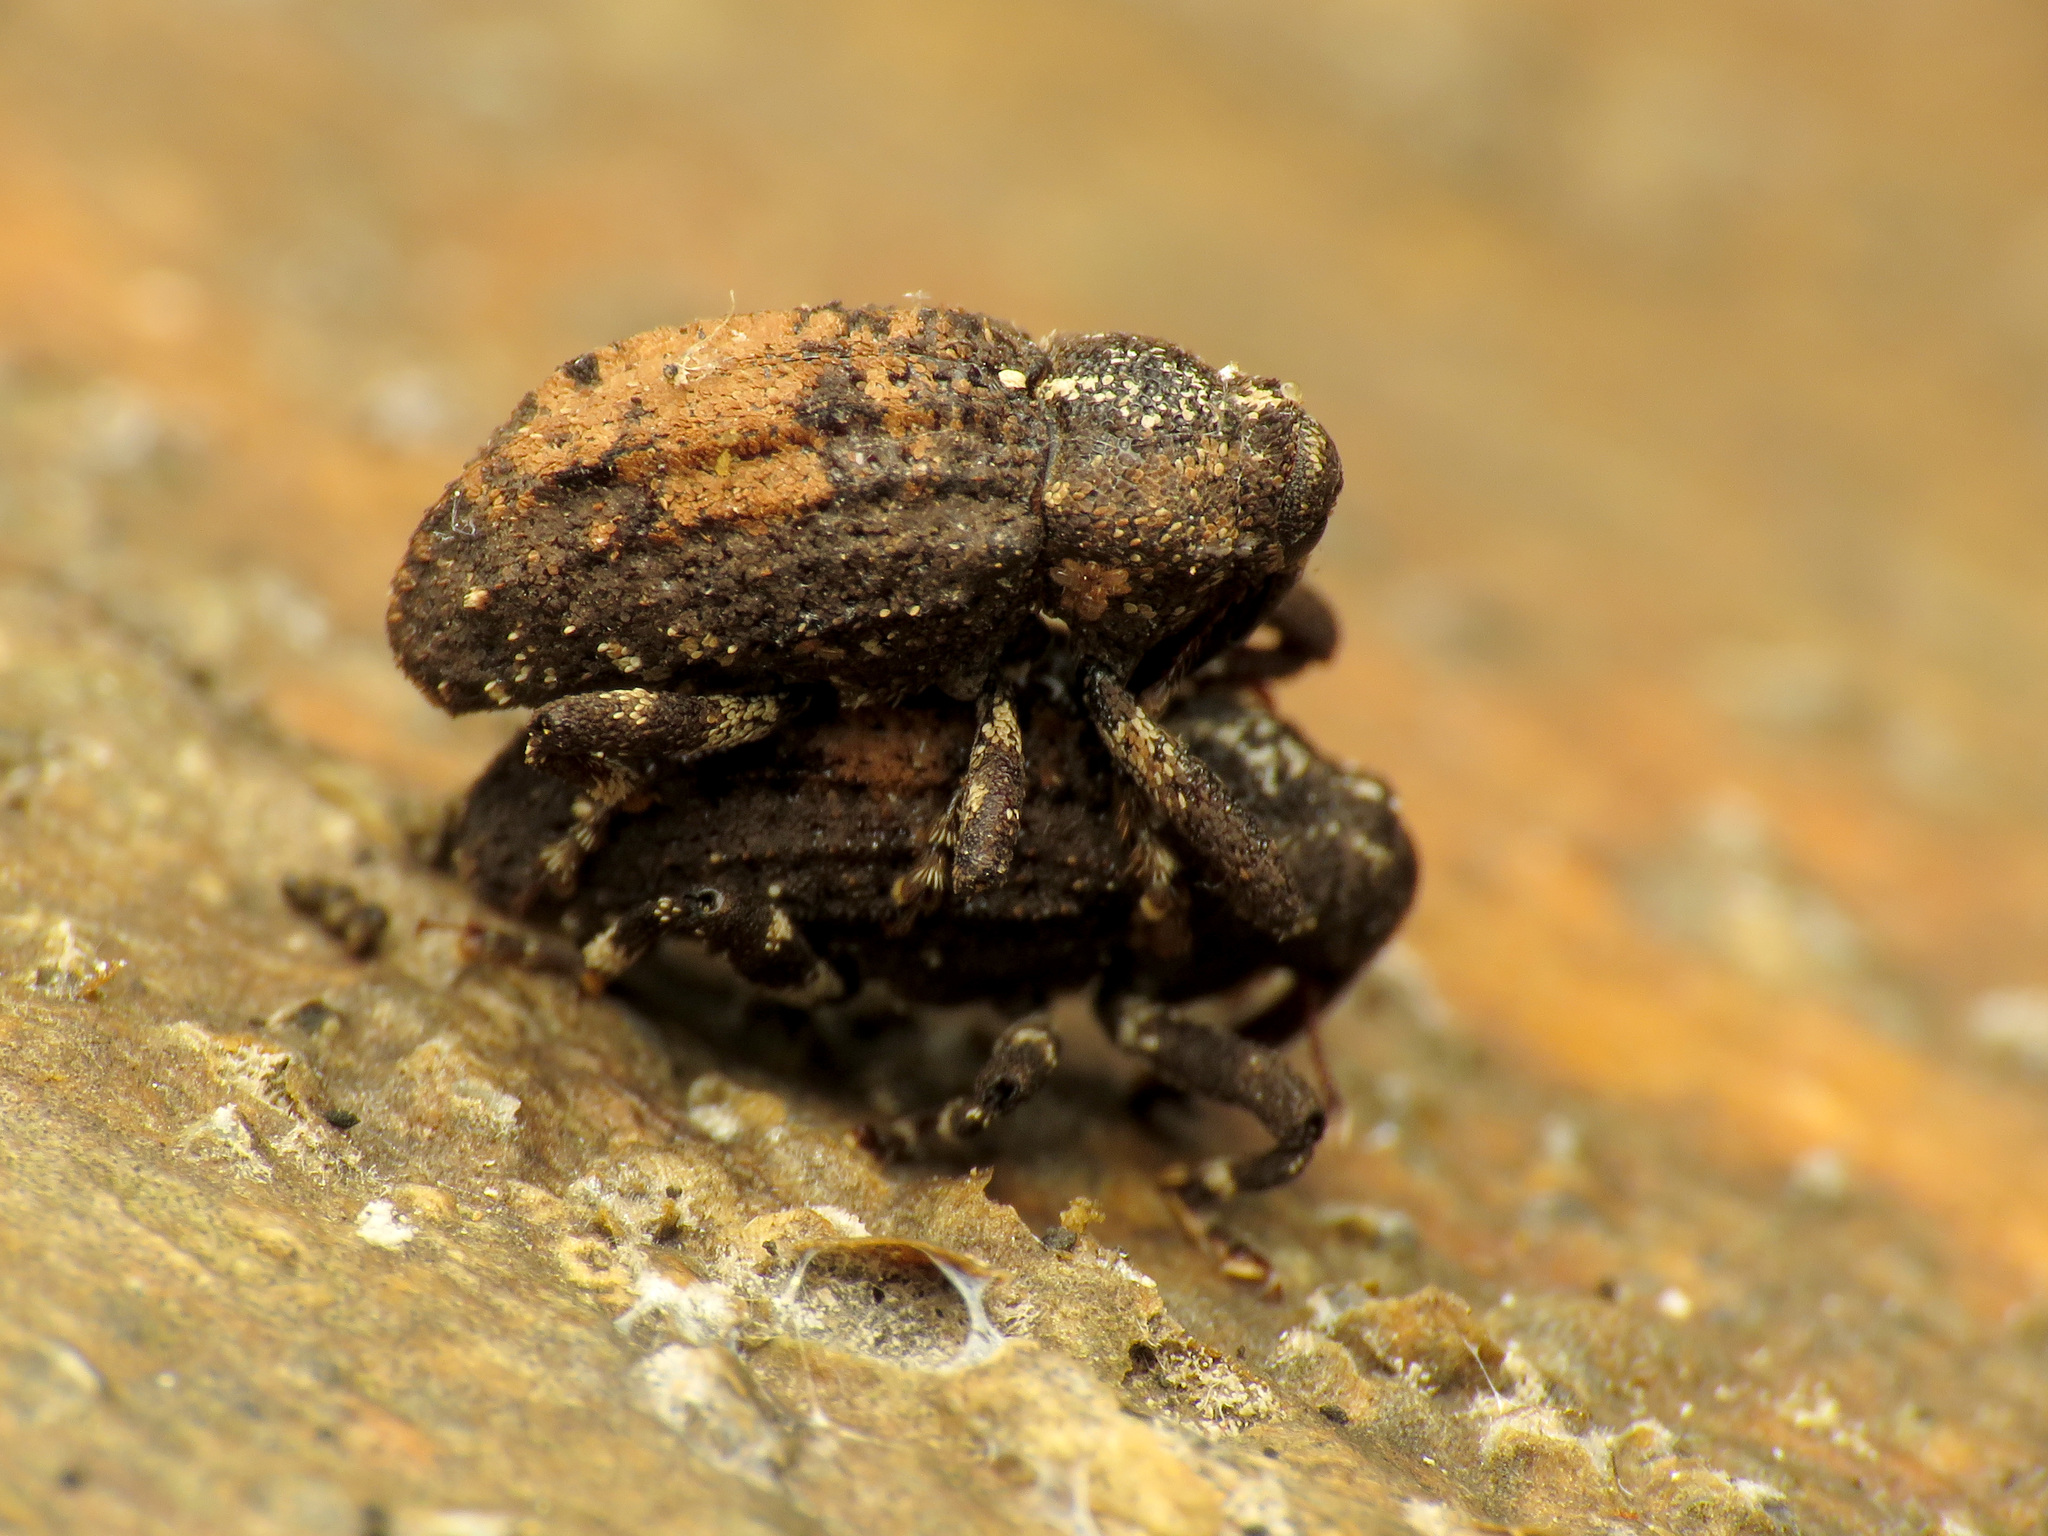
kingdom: Animalia
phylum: Arthropoda
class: Insecta
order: Coleoptera
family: Curculionidae
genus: Cophes
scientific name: Cophes obtentus
